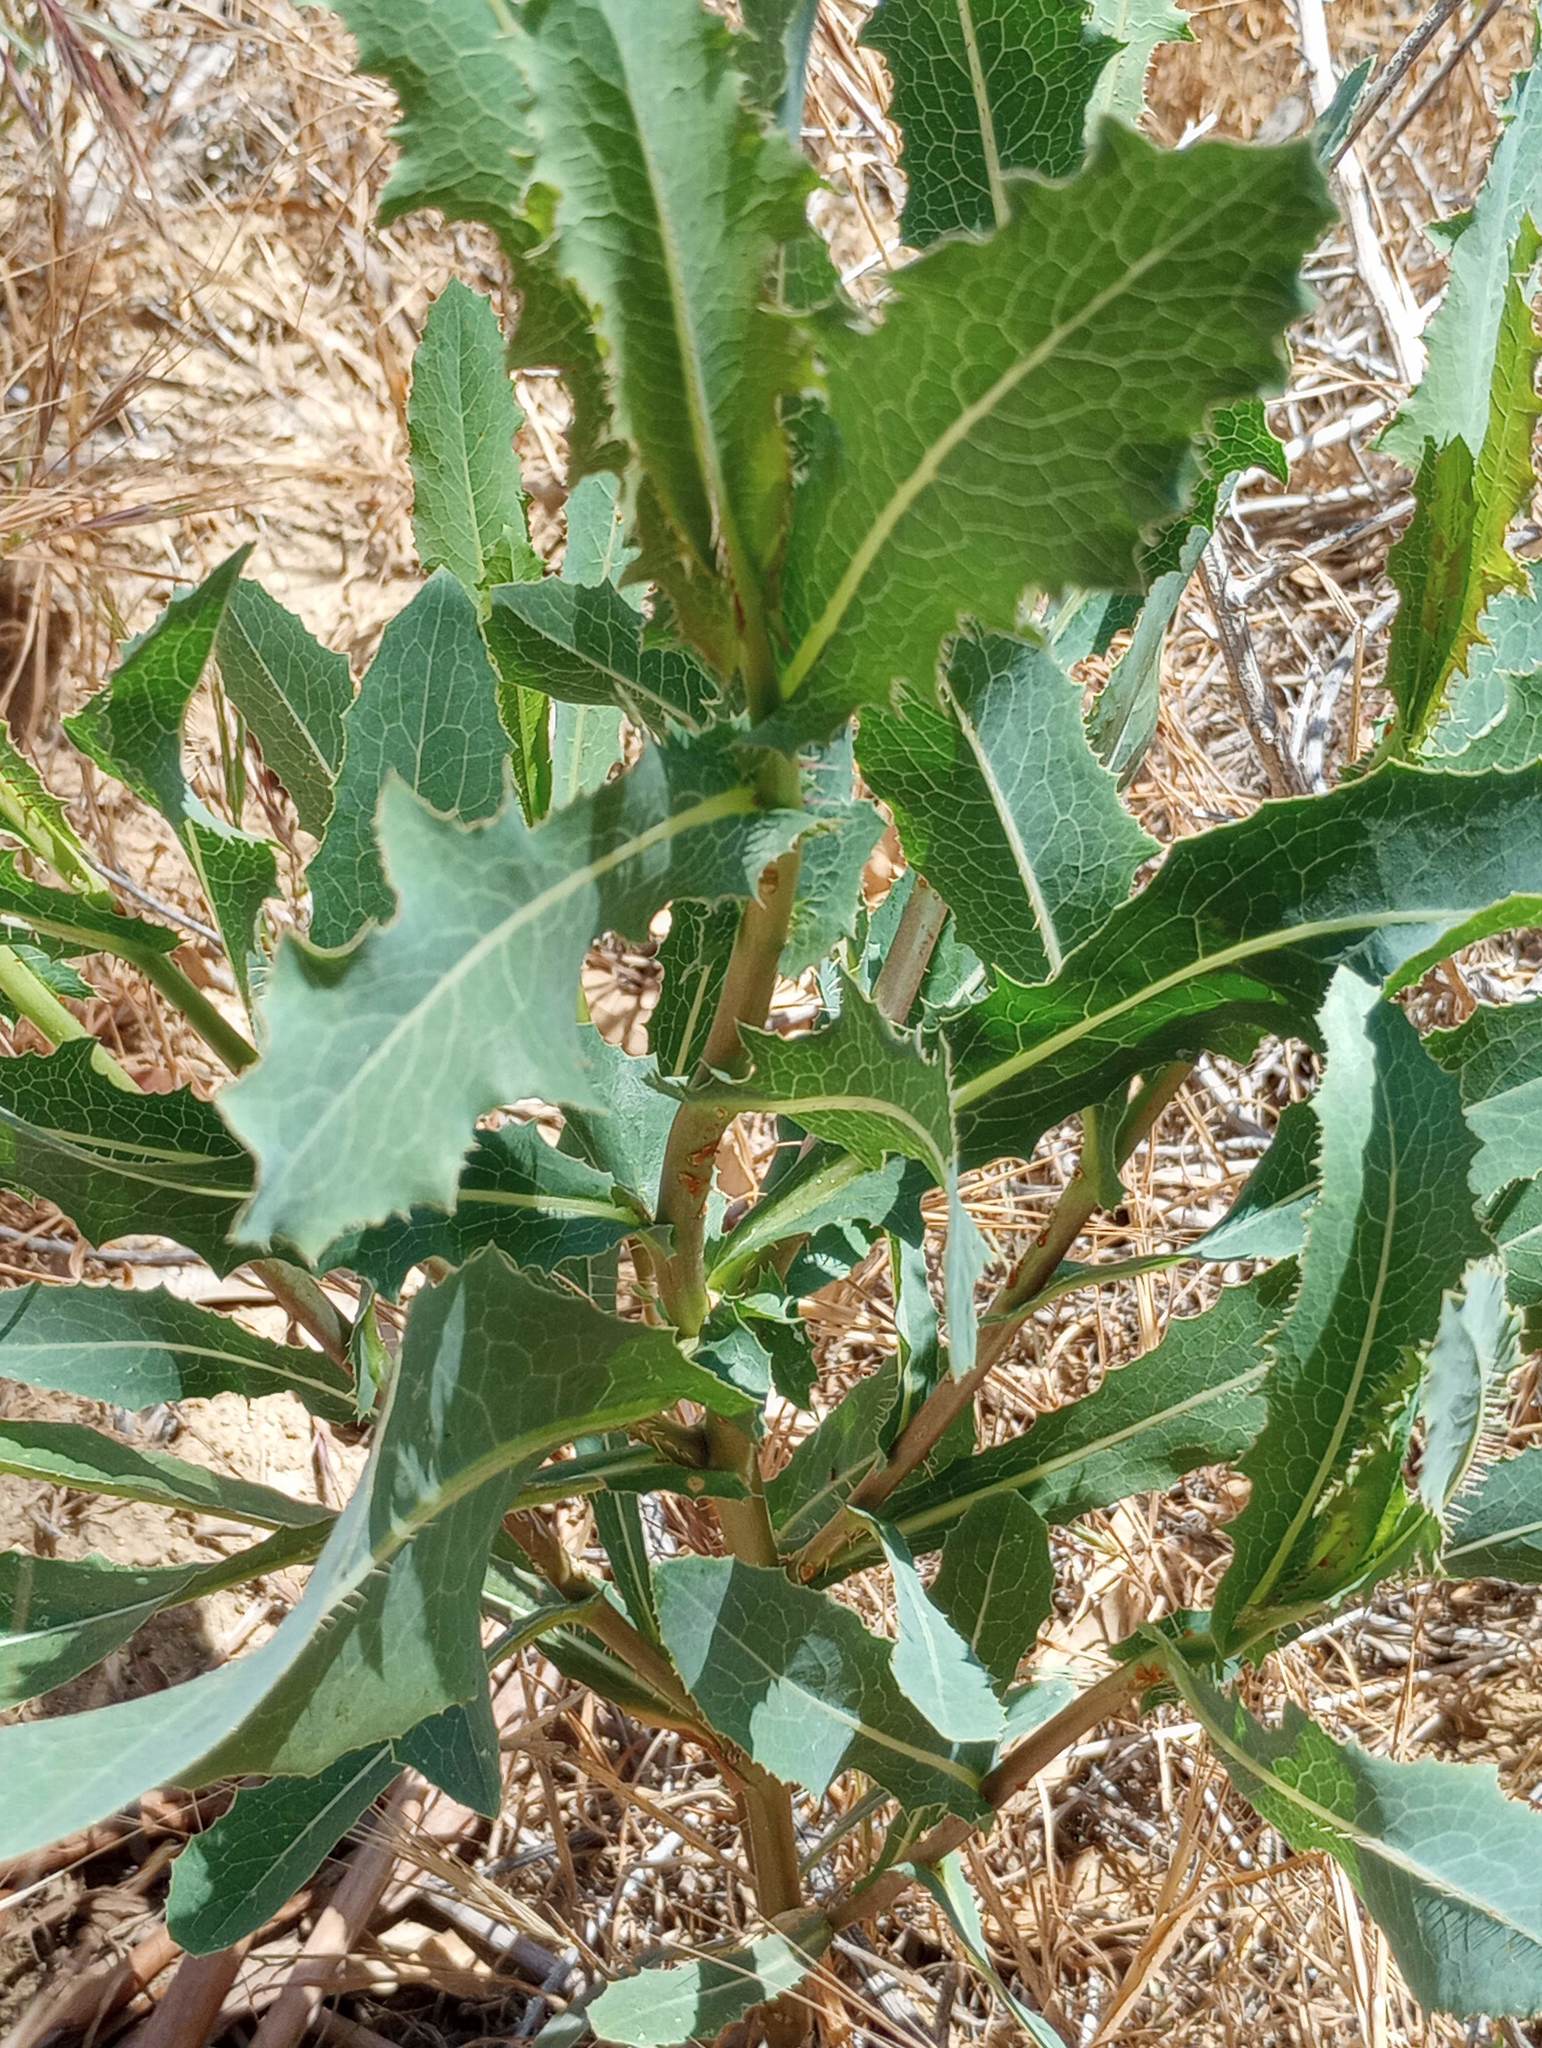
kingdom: Plantae
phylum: Tracheophyta
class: Magnoliopsida
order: Asterales
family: Asteraceae
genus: Lactuca
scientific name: Lactuca serriola
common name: Prickly lettuce
